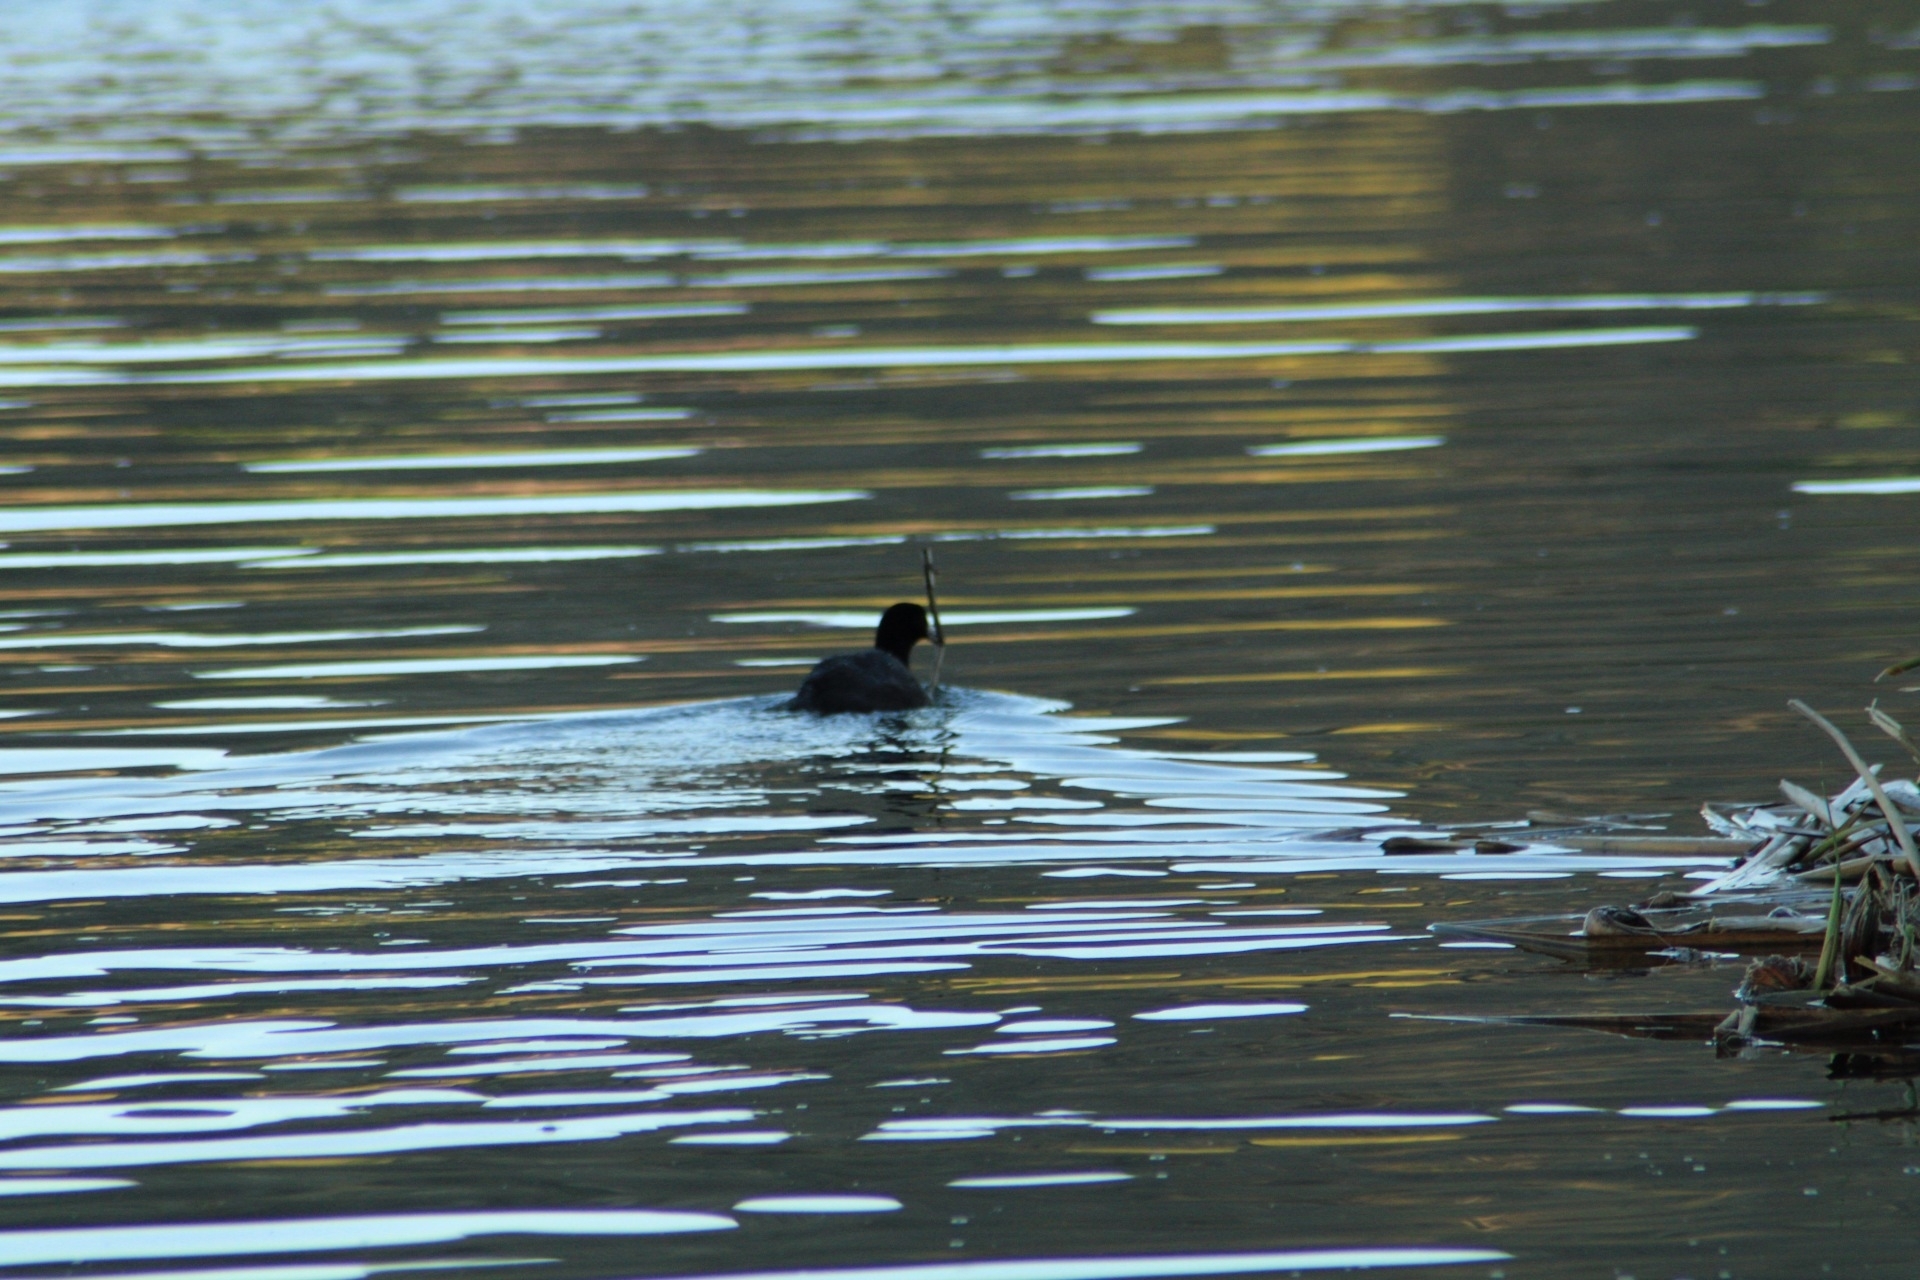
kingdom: Animalia
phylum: Chordata
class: Aves
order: Gruiformes
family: Rallidae
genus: Fulica
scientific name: Fulica americana
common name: American coot
